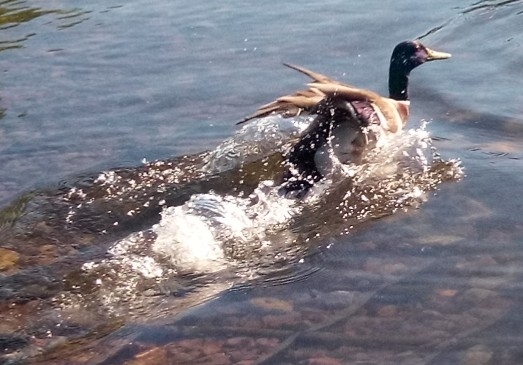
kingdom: Animalia
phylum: Chordata
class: Aves
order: Anseriformes
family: Anatidae
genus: Anas
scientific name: Anas platyrhynchos
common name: Mallard
